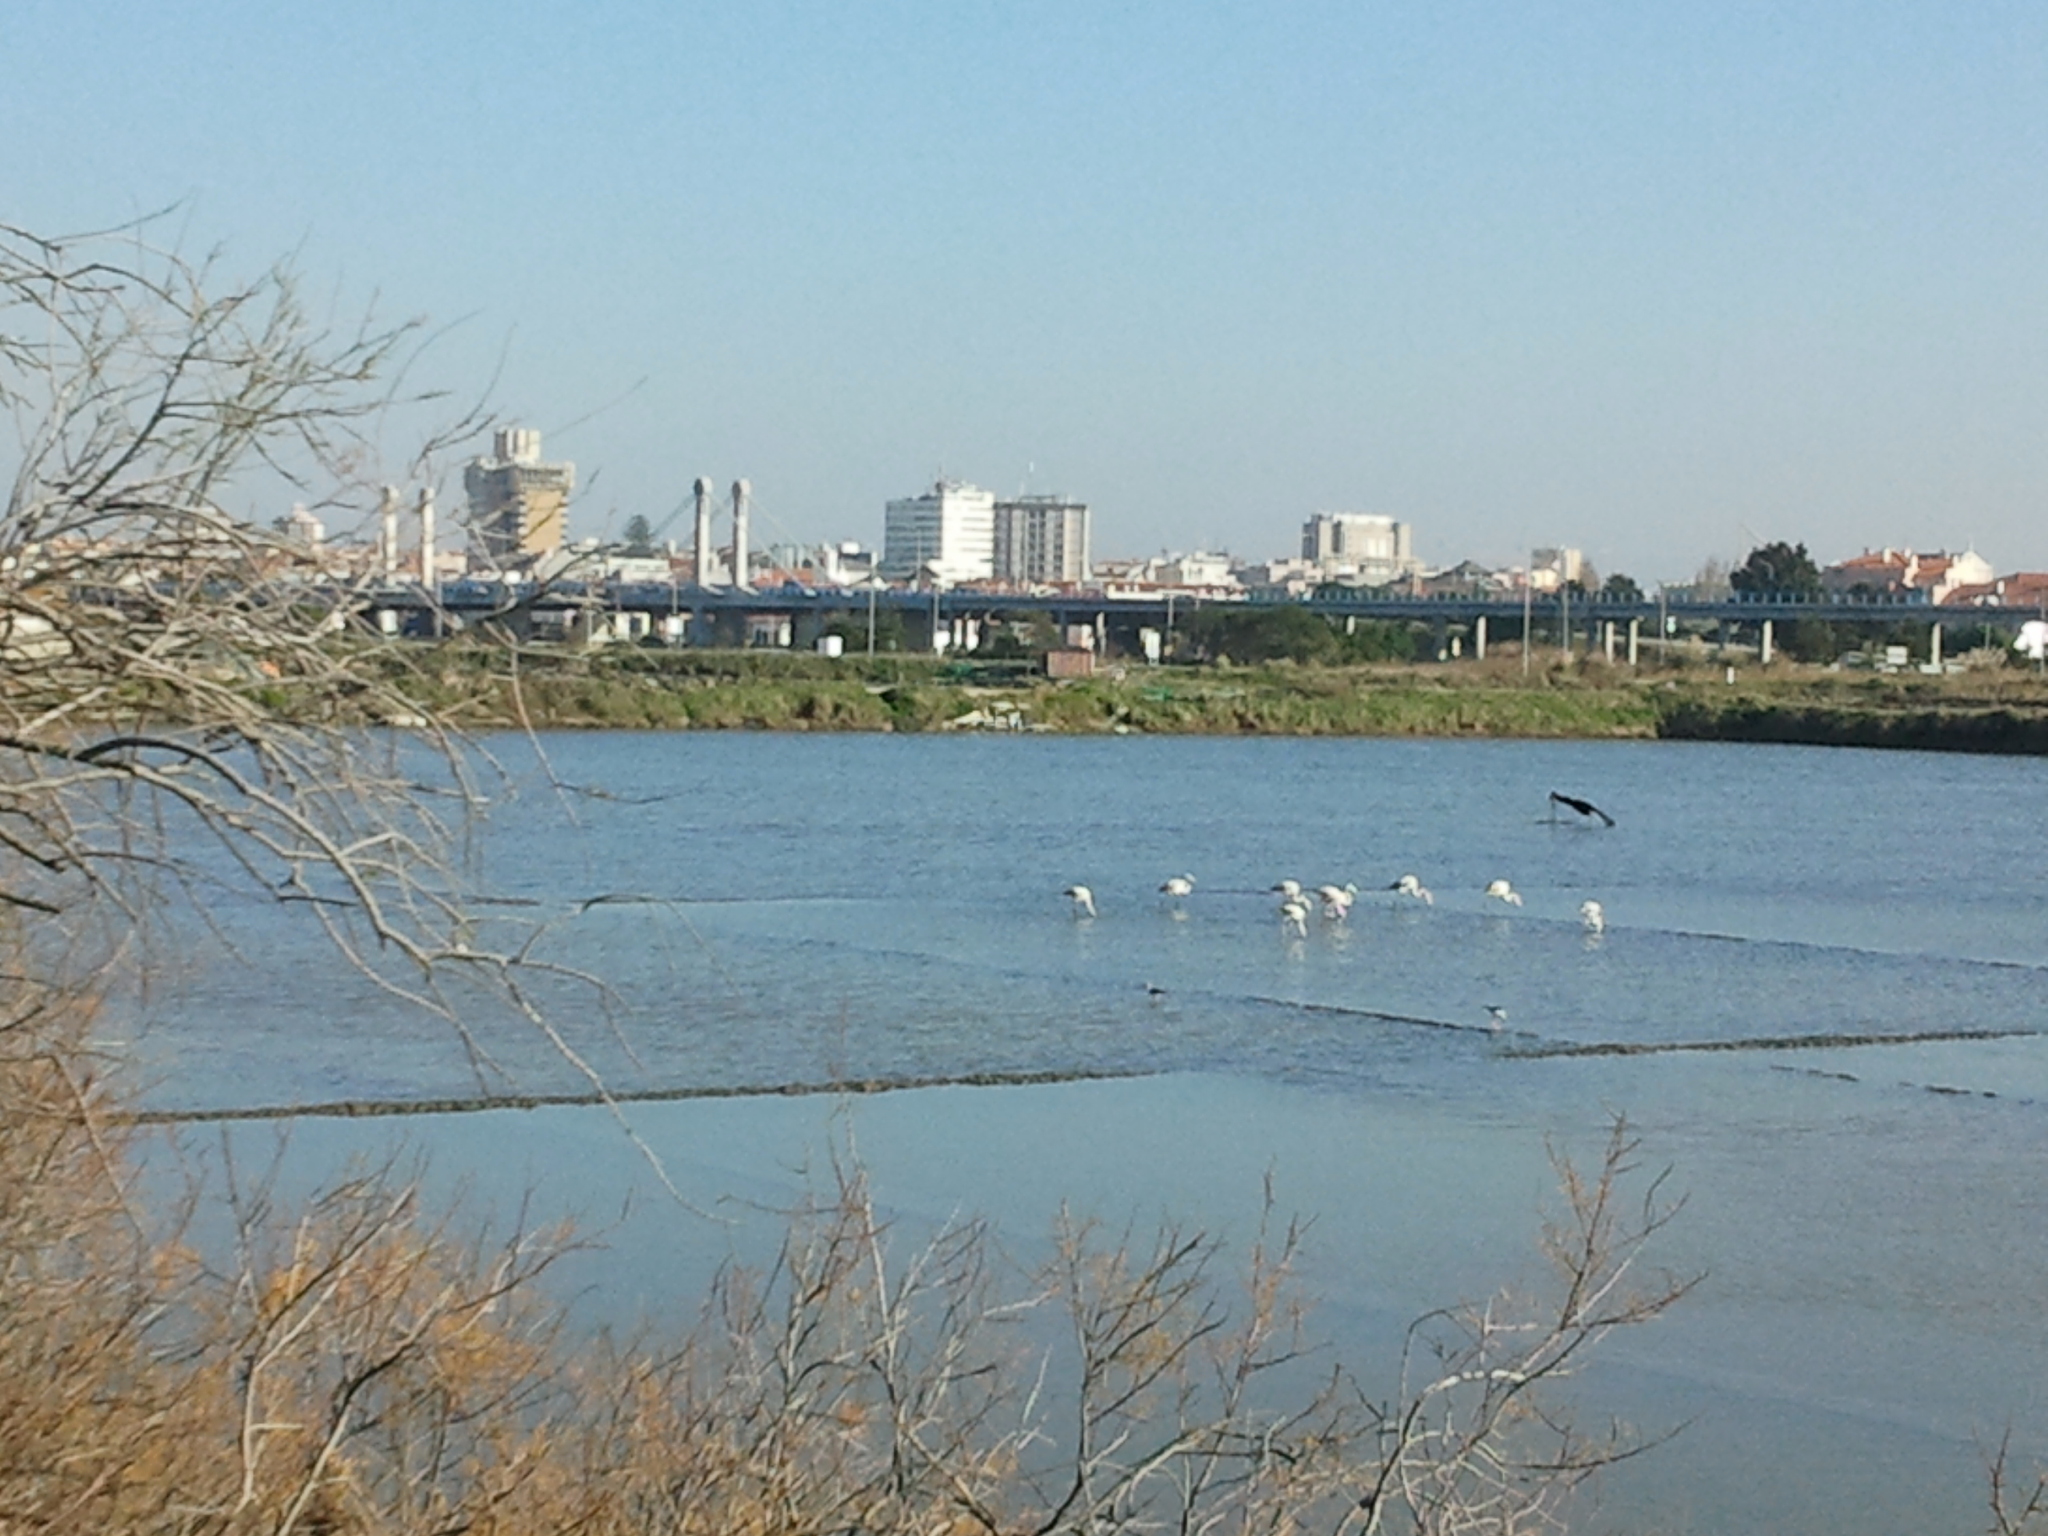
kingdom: Animalia
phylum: Chordata
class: Aves
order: Phoenicopteriformes
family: Phoenicopteridae
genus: Phoenicopterus
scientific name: Phoenicopterus roseus
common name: Greater flamingo
